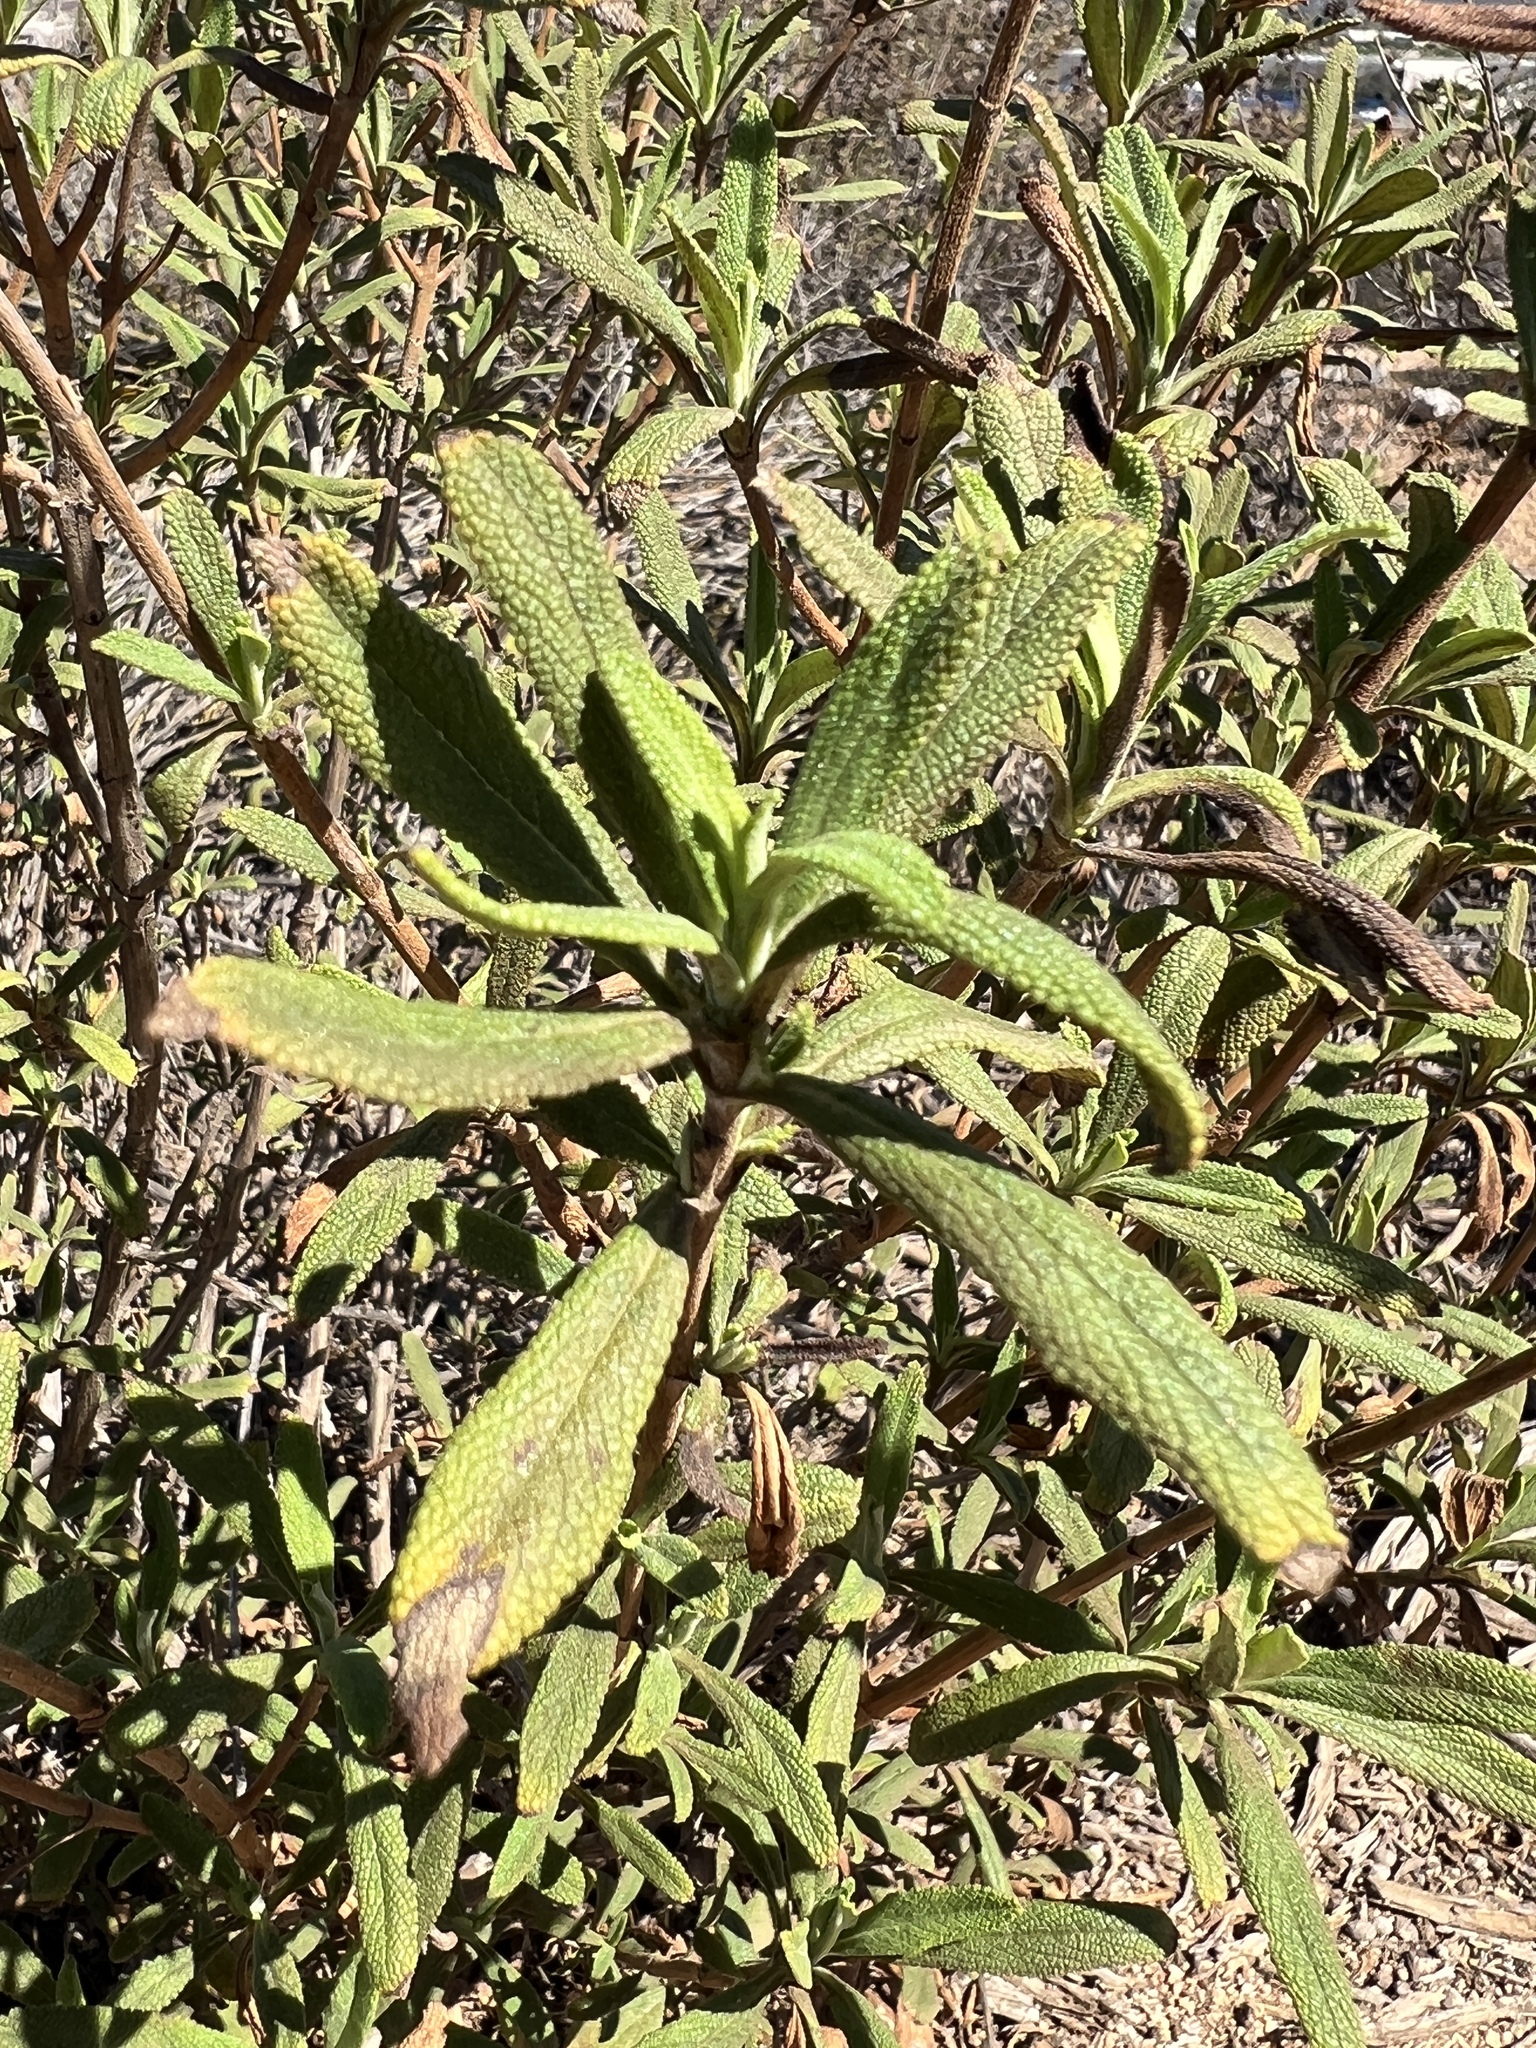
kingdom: Plantae
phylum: Tracheophyta
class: Magnoliopsida
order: Lamiales
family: Lamiaceae
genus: Salvia
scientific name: Salvia mellifera
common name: Black sage
